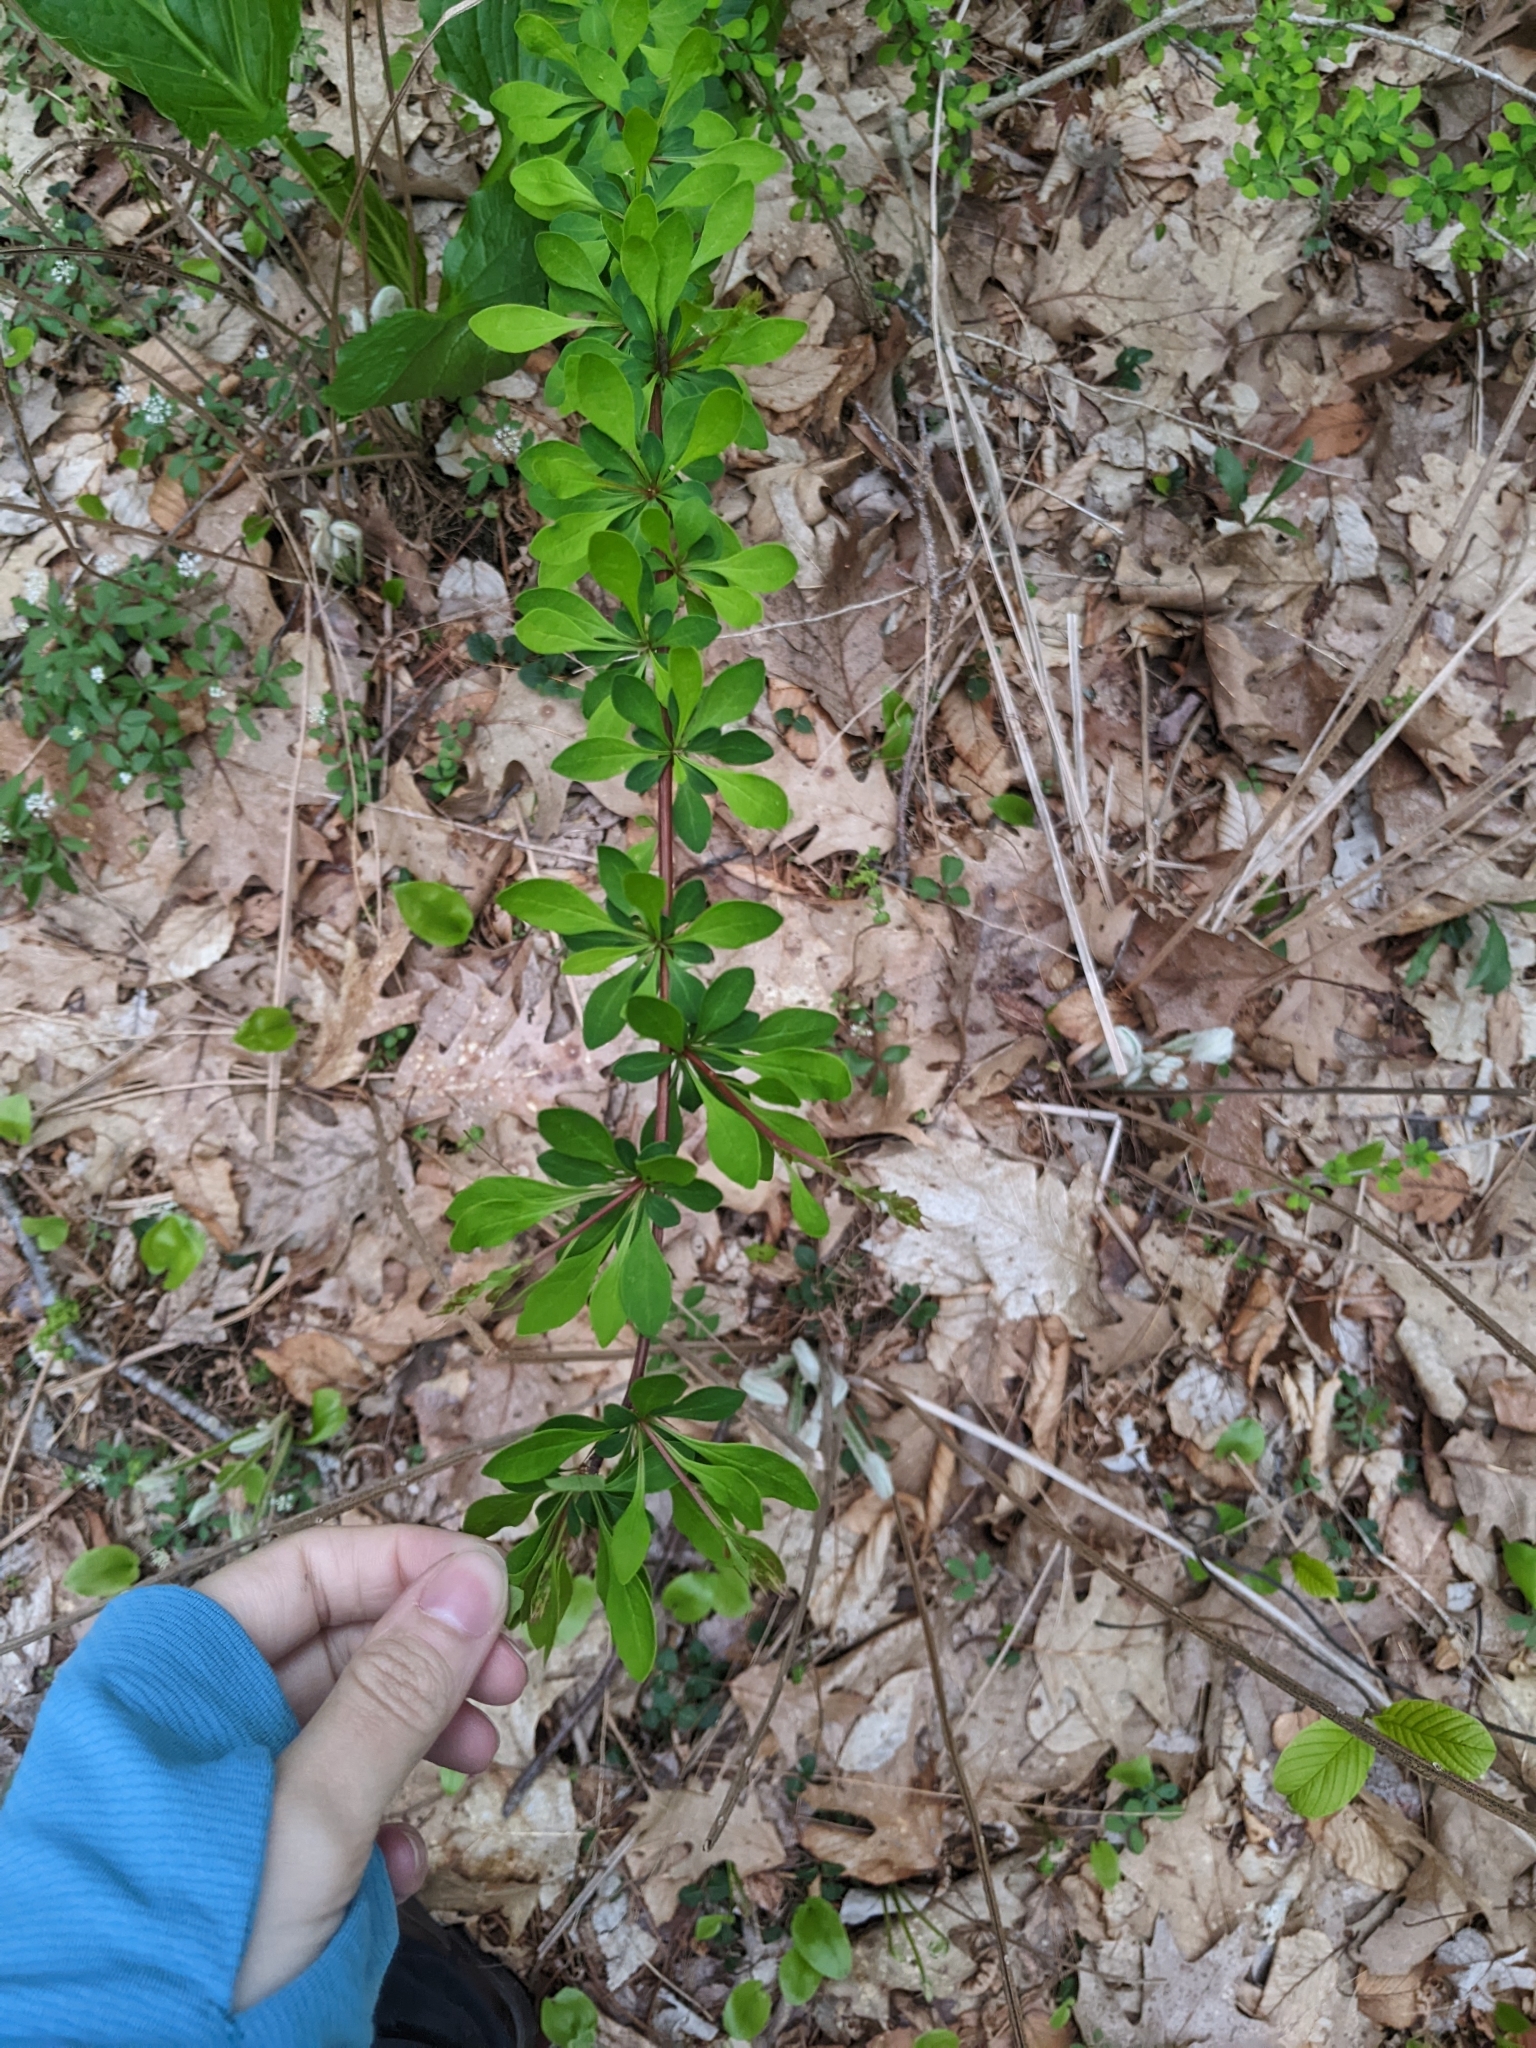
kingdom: Plantae
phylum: Tracheophyta
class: Magnoliopsida
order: Ranunculales
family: Berberidaceae
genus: Berberis
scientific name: Berberis thunbergii
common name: Japanese barberry
